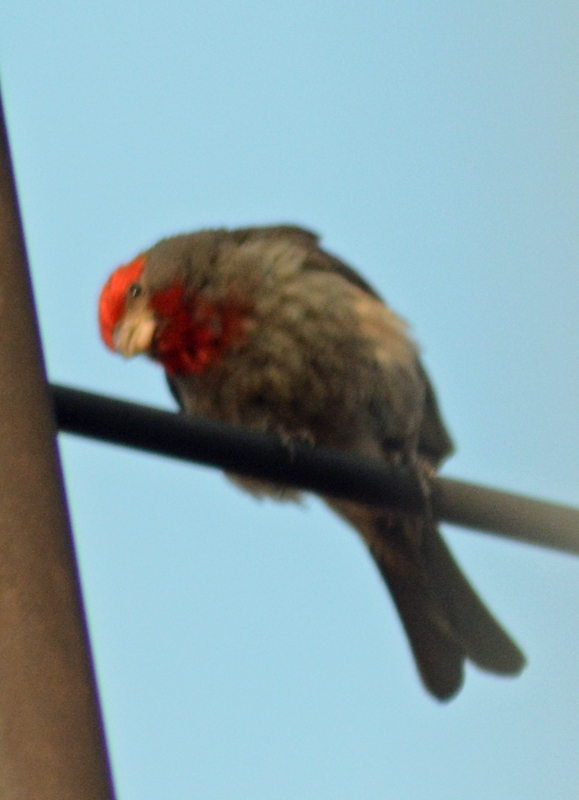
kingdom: Animalia
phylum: Chordata
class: Aves
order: Passeriformes
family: Fringillidae
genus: Haemorhous
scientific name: Haemorhous mexicanus
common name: House finch
